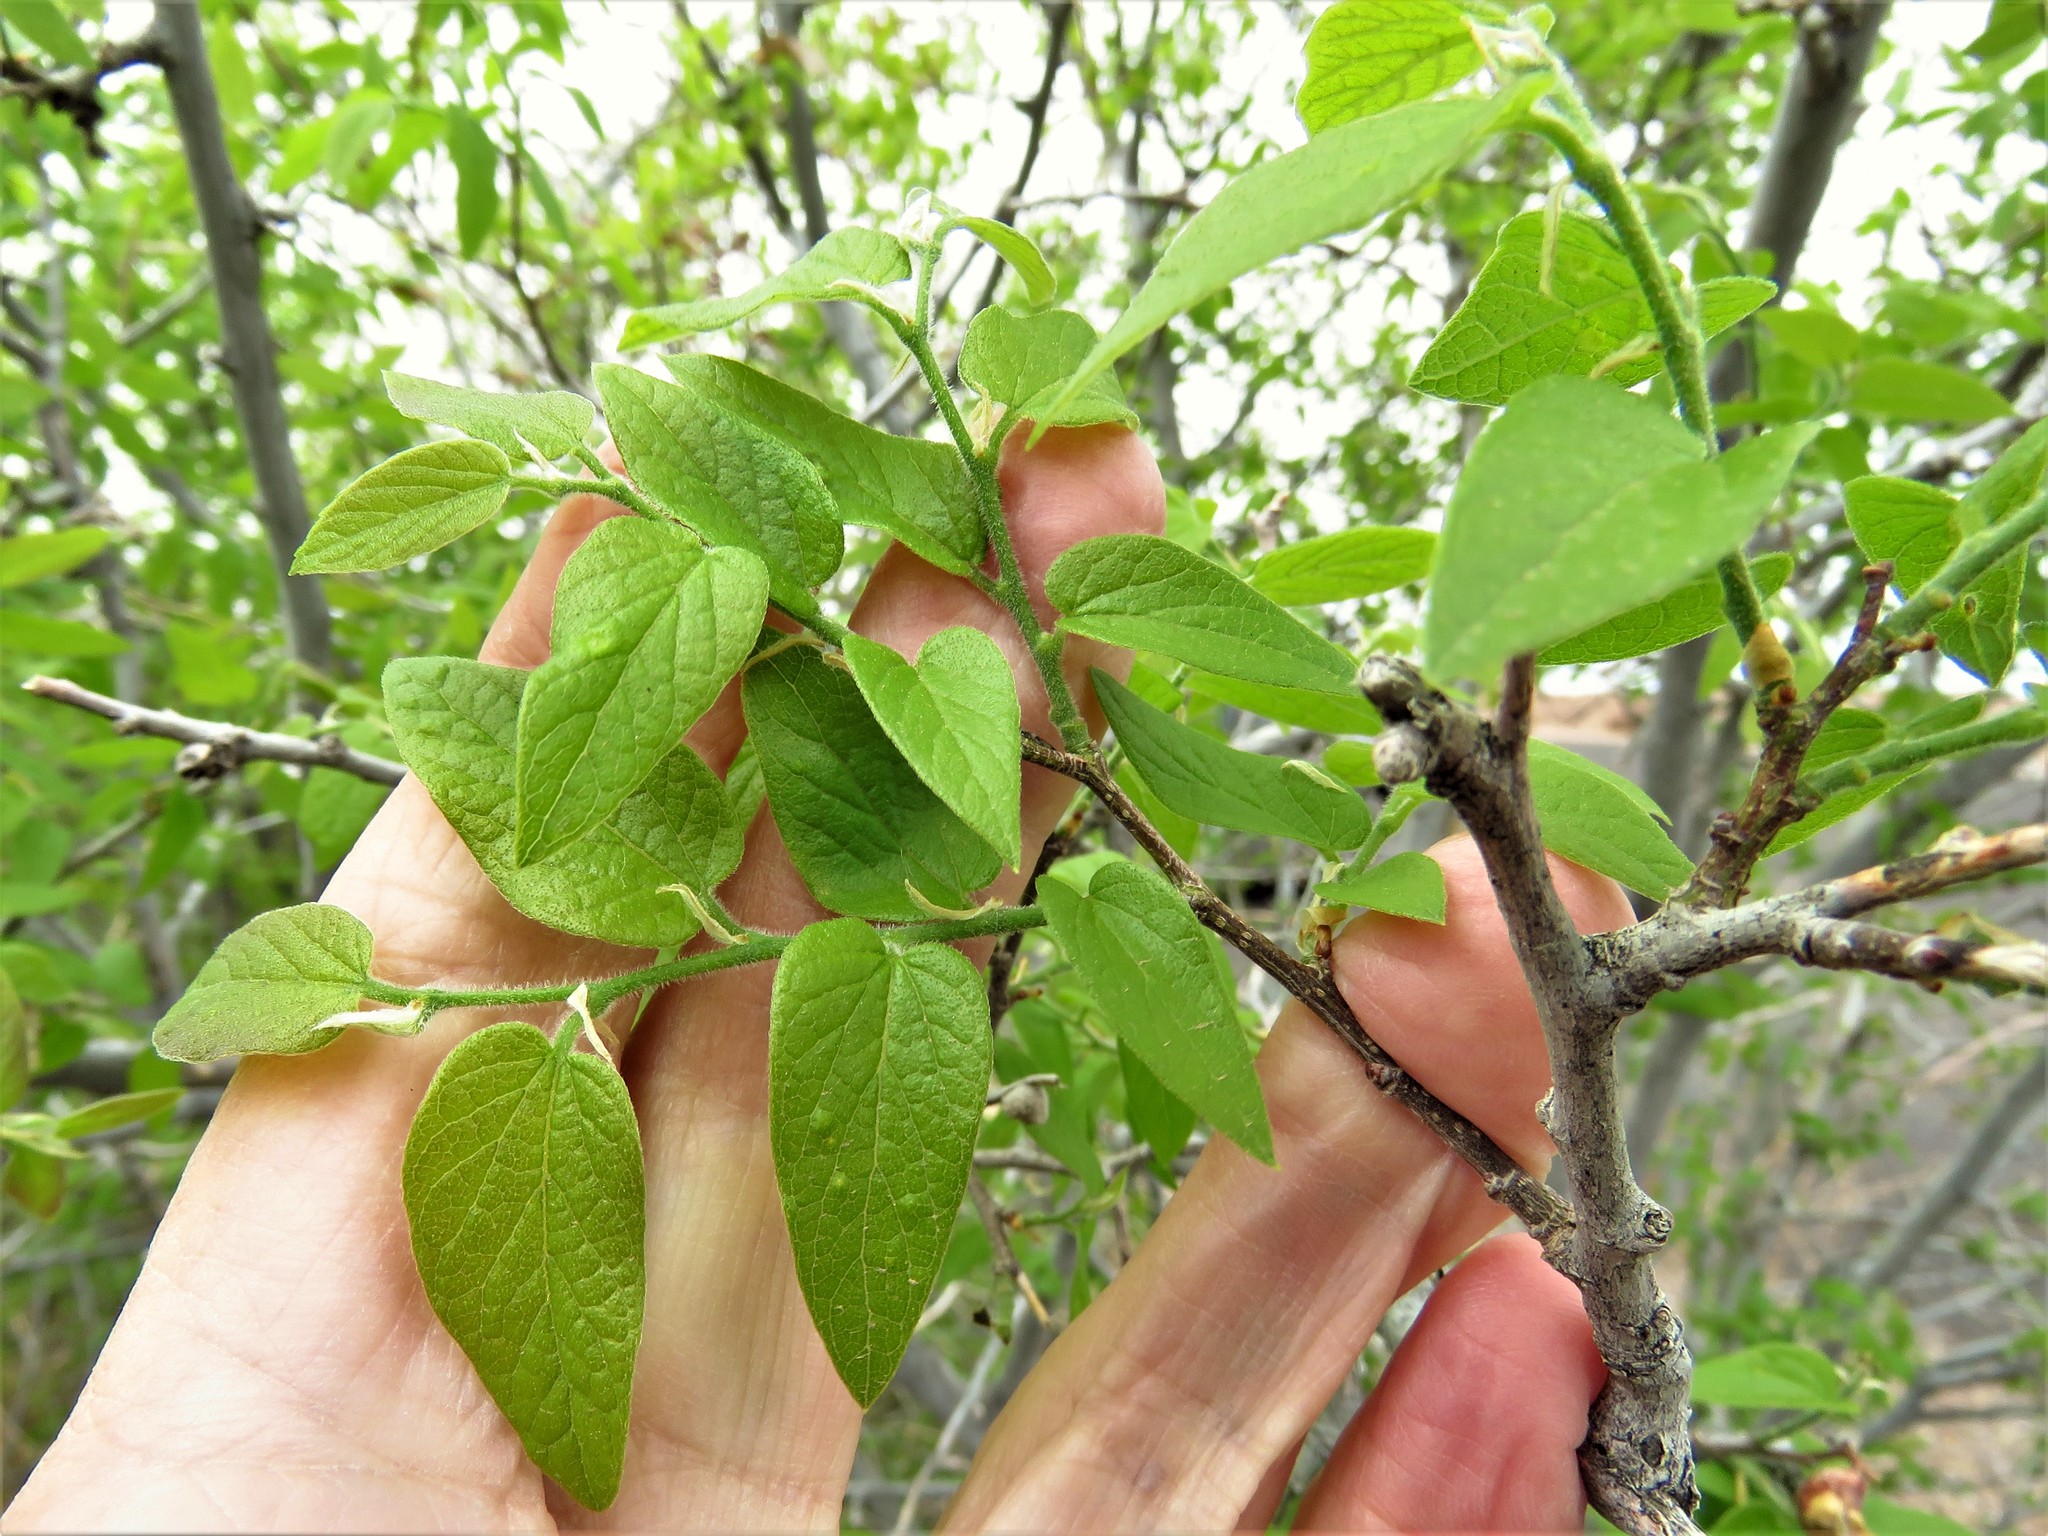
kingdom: Plantae
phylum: Tracheophyta
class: Magnoliopsida
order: Rosales
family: Cannabaceae
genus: Celtis
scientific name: Celtis reticulata
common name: Netleaf hackberry
